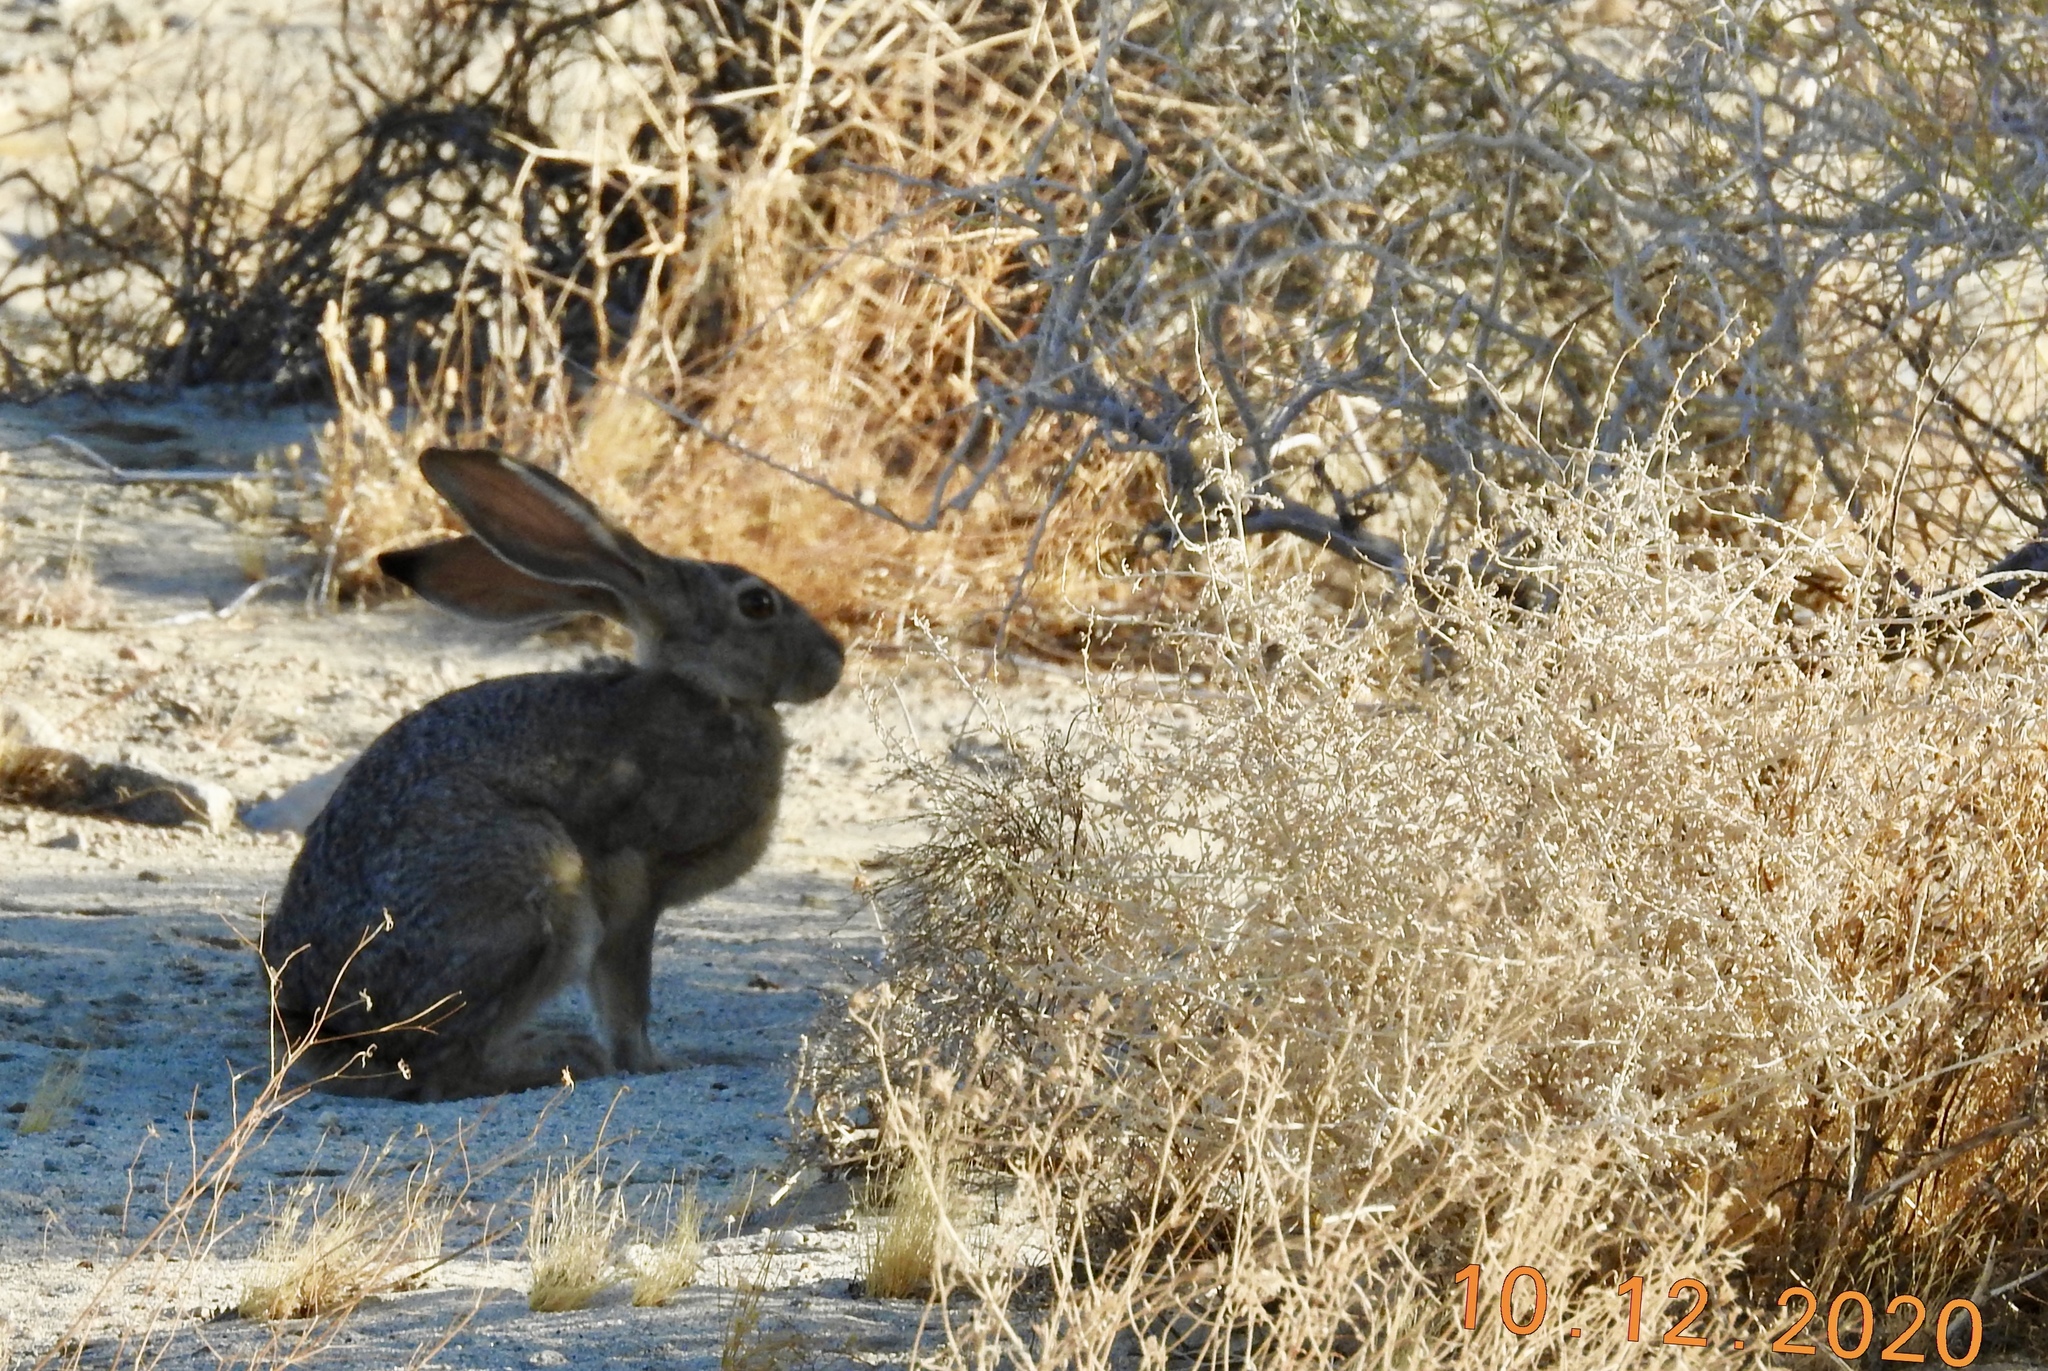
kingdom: Animalia
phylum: Chordata
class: Mammalia
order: Lagomorpha
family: Leporidae
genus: Lepus
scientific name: Lepus californicus
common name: Black-tailed jackrabbit
